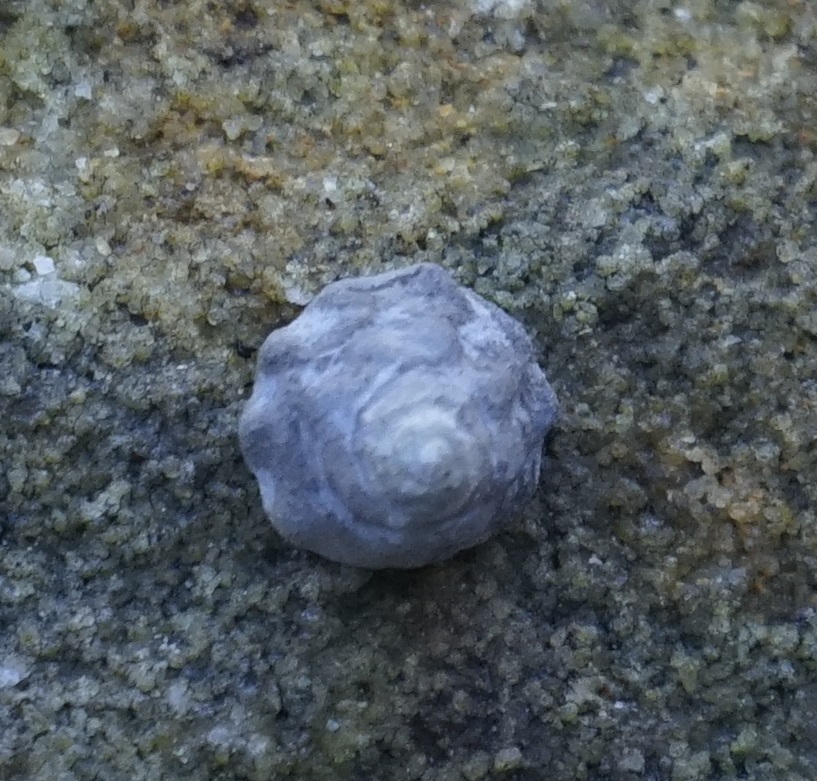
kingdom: Animalia
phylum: Mollusca
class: Gastropoda
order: Littorinimorpha
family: Littorinidae
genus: Bembicium
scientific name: Bembicium auratum
